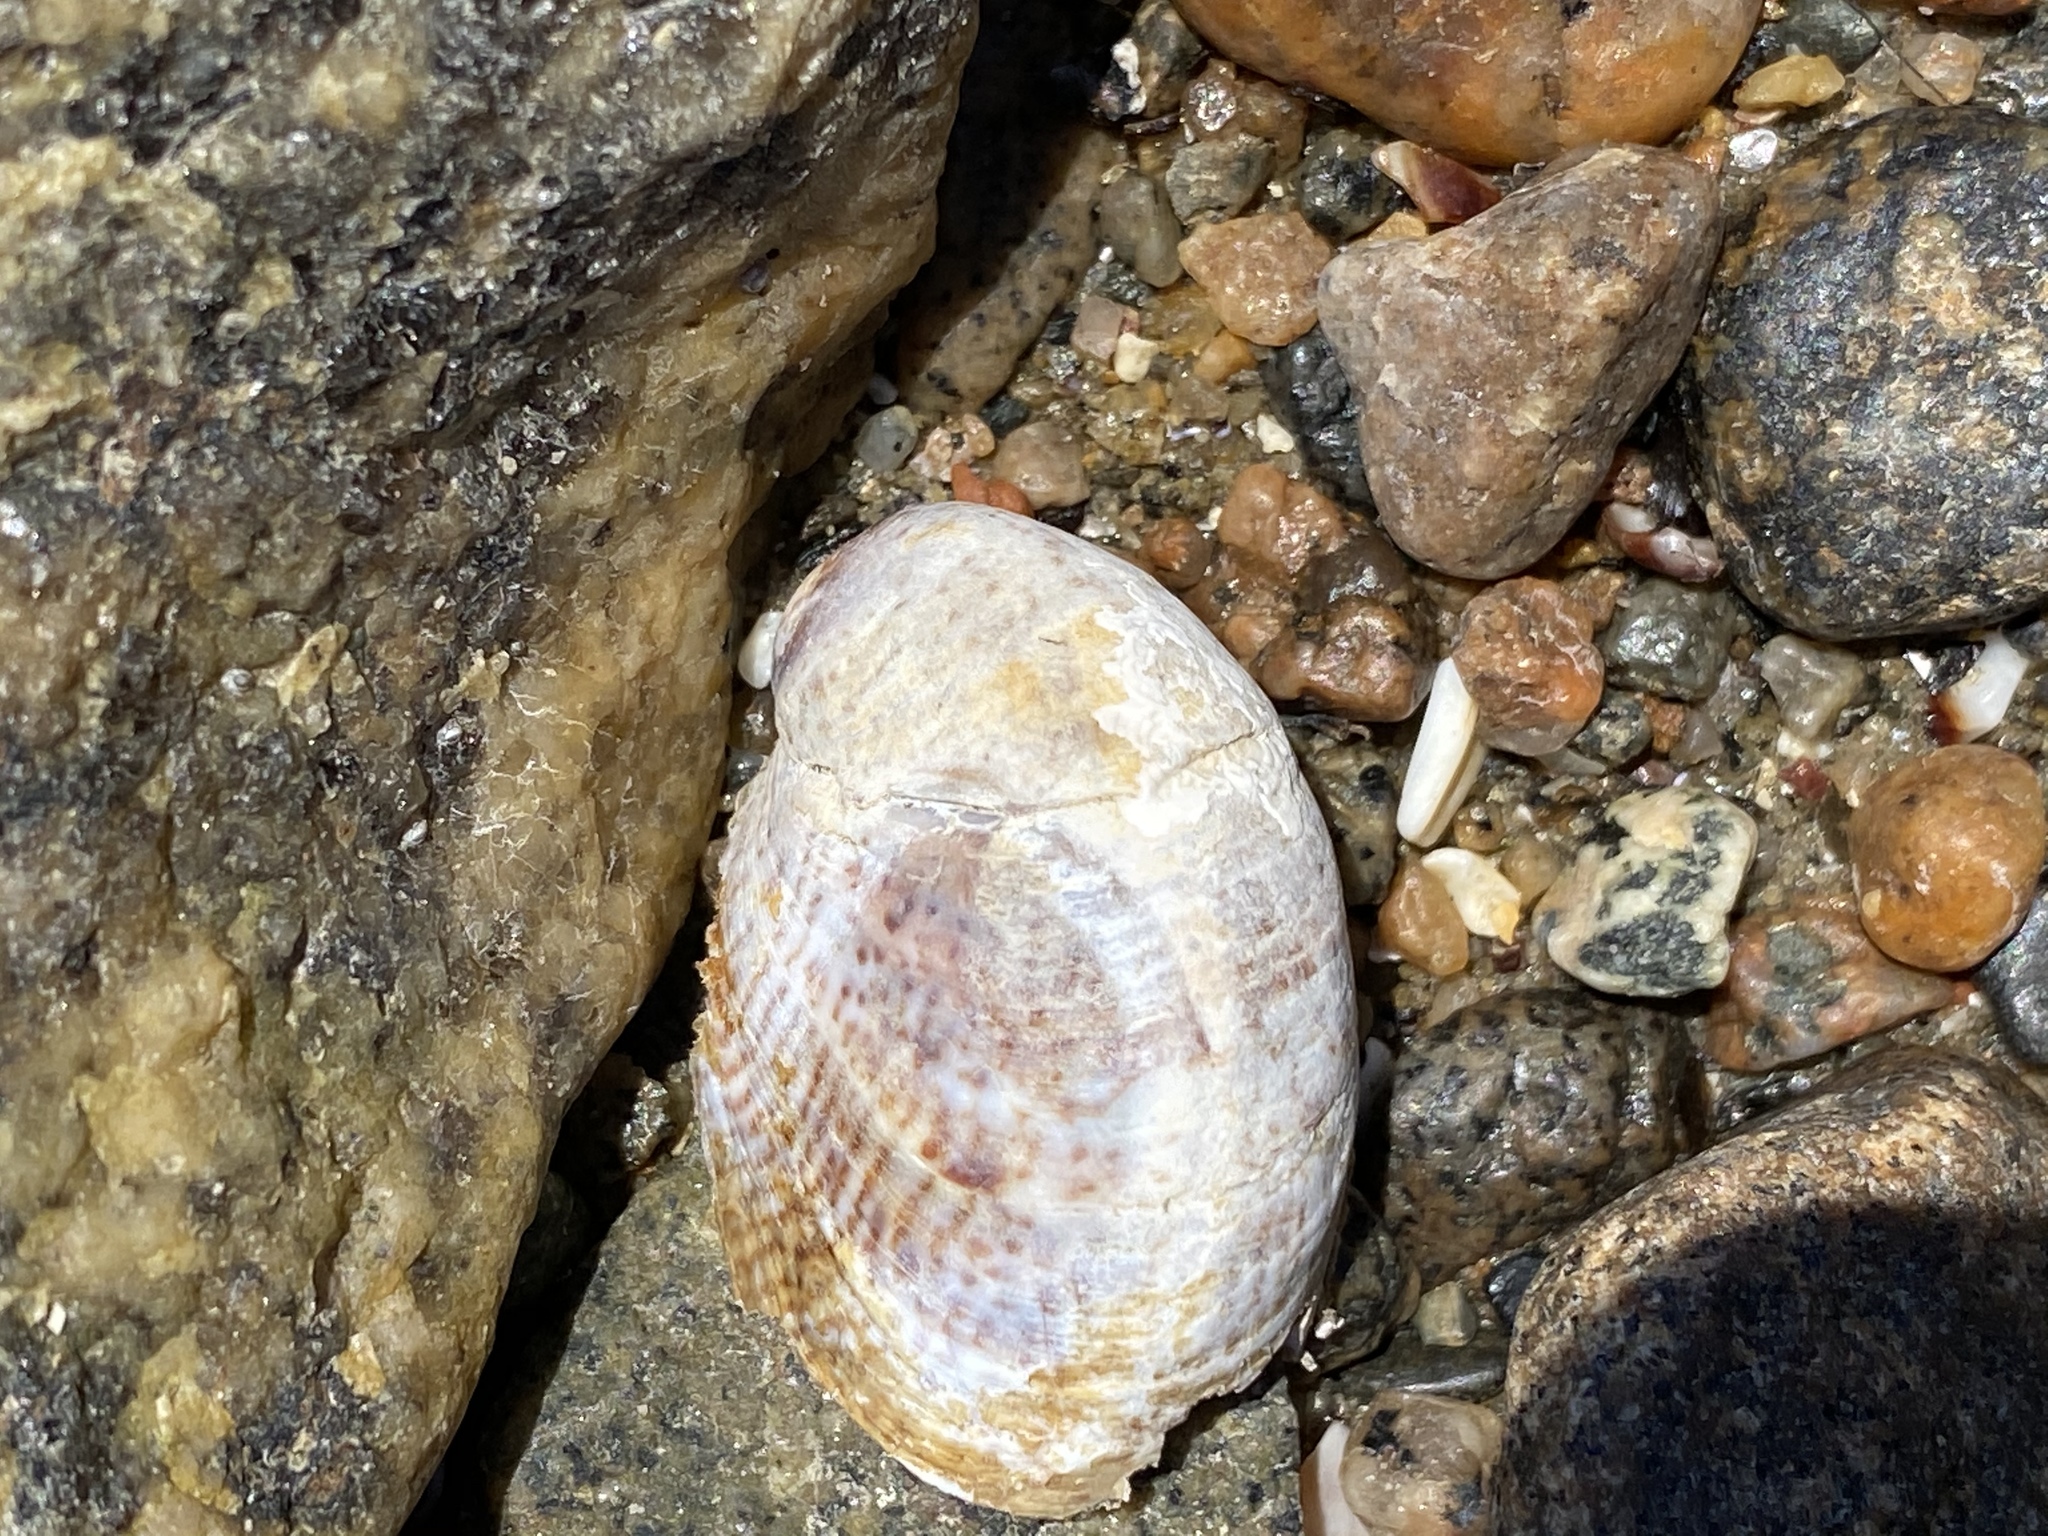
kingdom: Animalia
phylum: Mollusca
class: Gastropoda
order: Littorinimorpha
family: Calyptraeidae
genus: Crepidula
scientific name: Crepidula fornicata
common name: Slipper limpet
